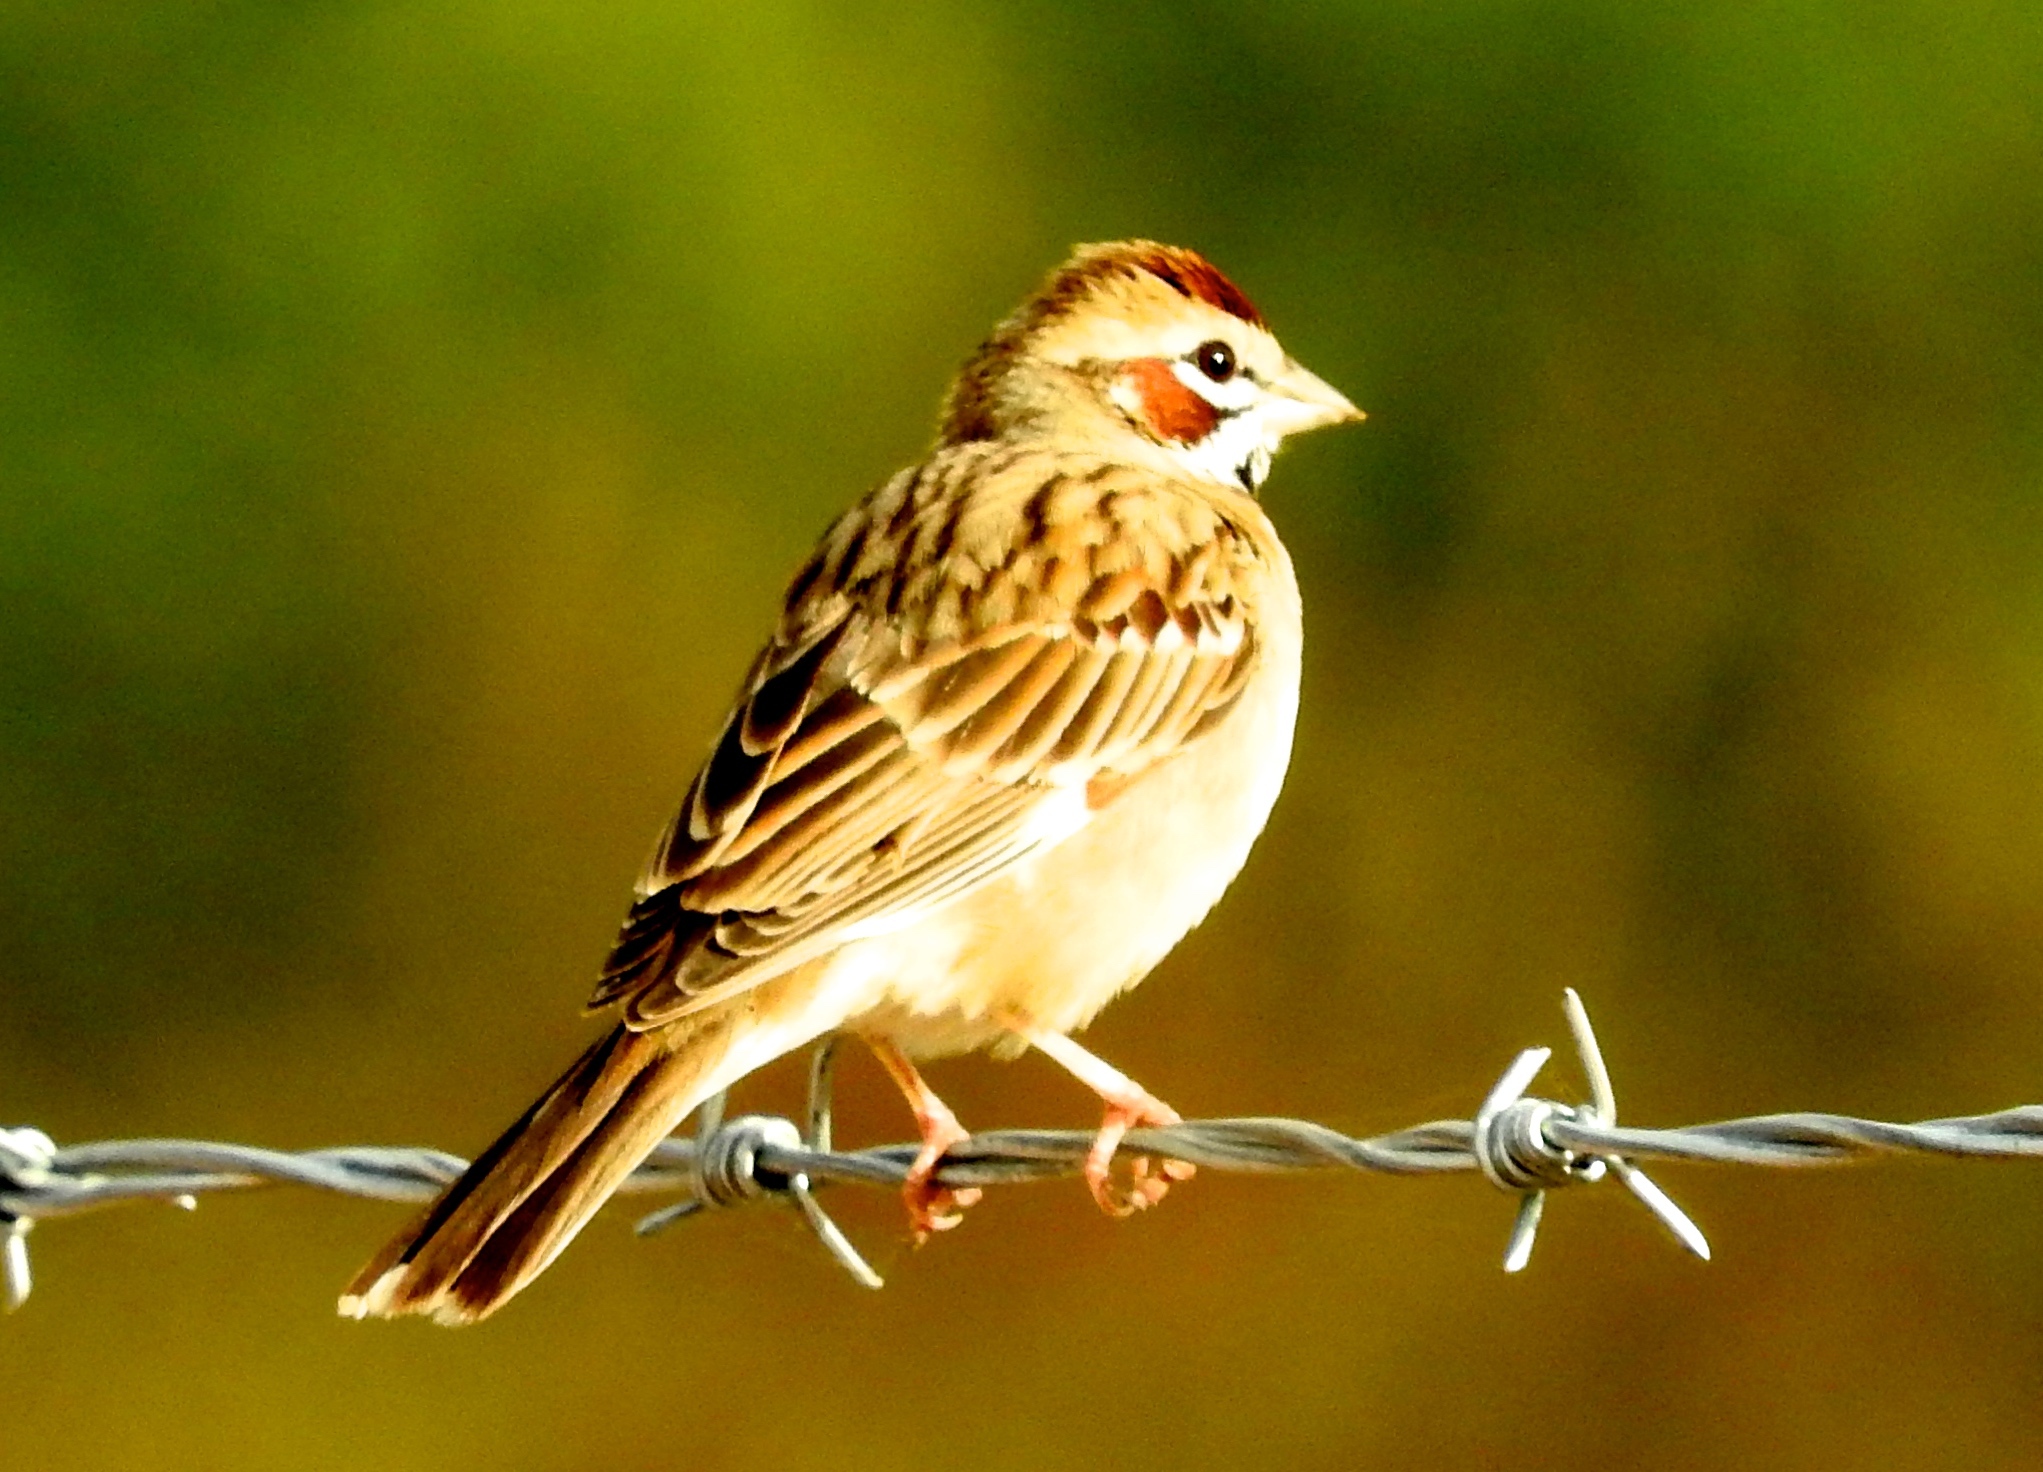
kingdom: Animalia
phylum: Chordata
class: Aves
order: Passeriformes
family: Passerellidae
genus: Chondestes
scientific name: Chondestes grammacus
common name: Lark sparrow
